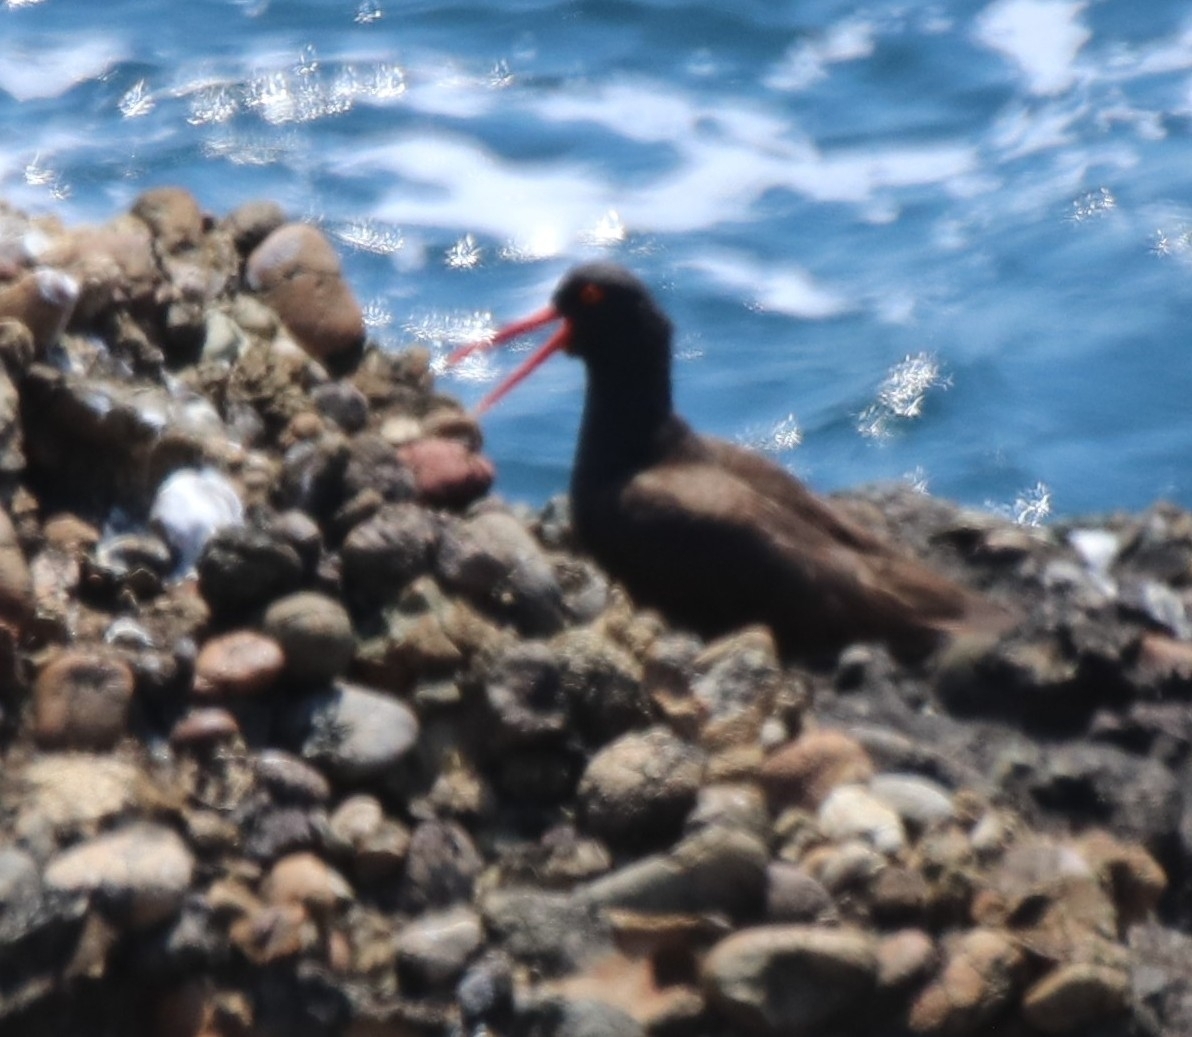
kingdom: Animalia
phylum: Chordata
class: Aves
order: Charadriiformes
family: Haematopodidae
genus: Haematopus
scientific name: Haematopus bachmani
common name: Black oystercatcher
